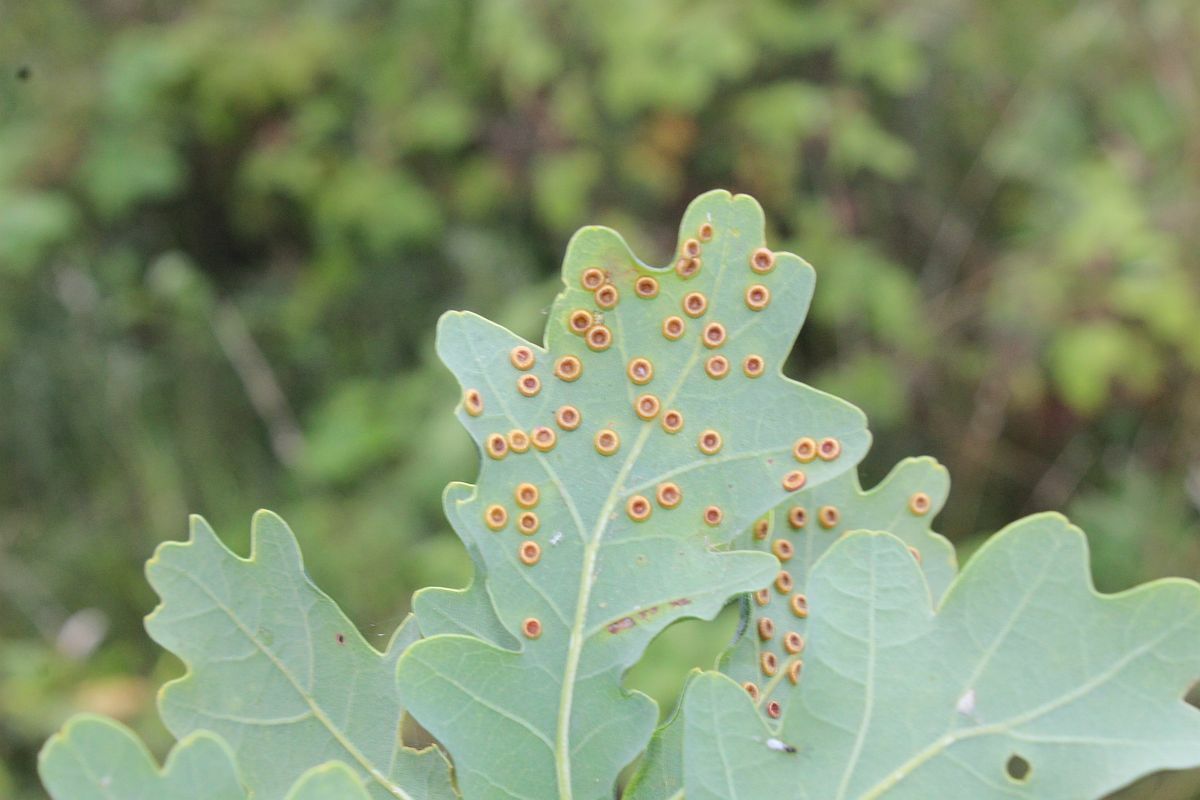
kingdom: Animalia
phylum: Arthropoda
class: Insecta
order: Hymenoptera
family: Cynipidae
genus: Neuroterus
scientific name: Neuroterus numismalis
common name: Silk-button spangle gall
